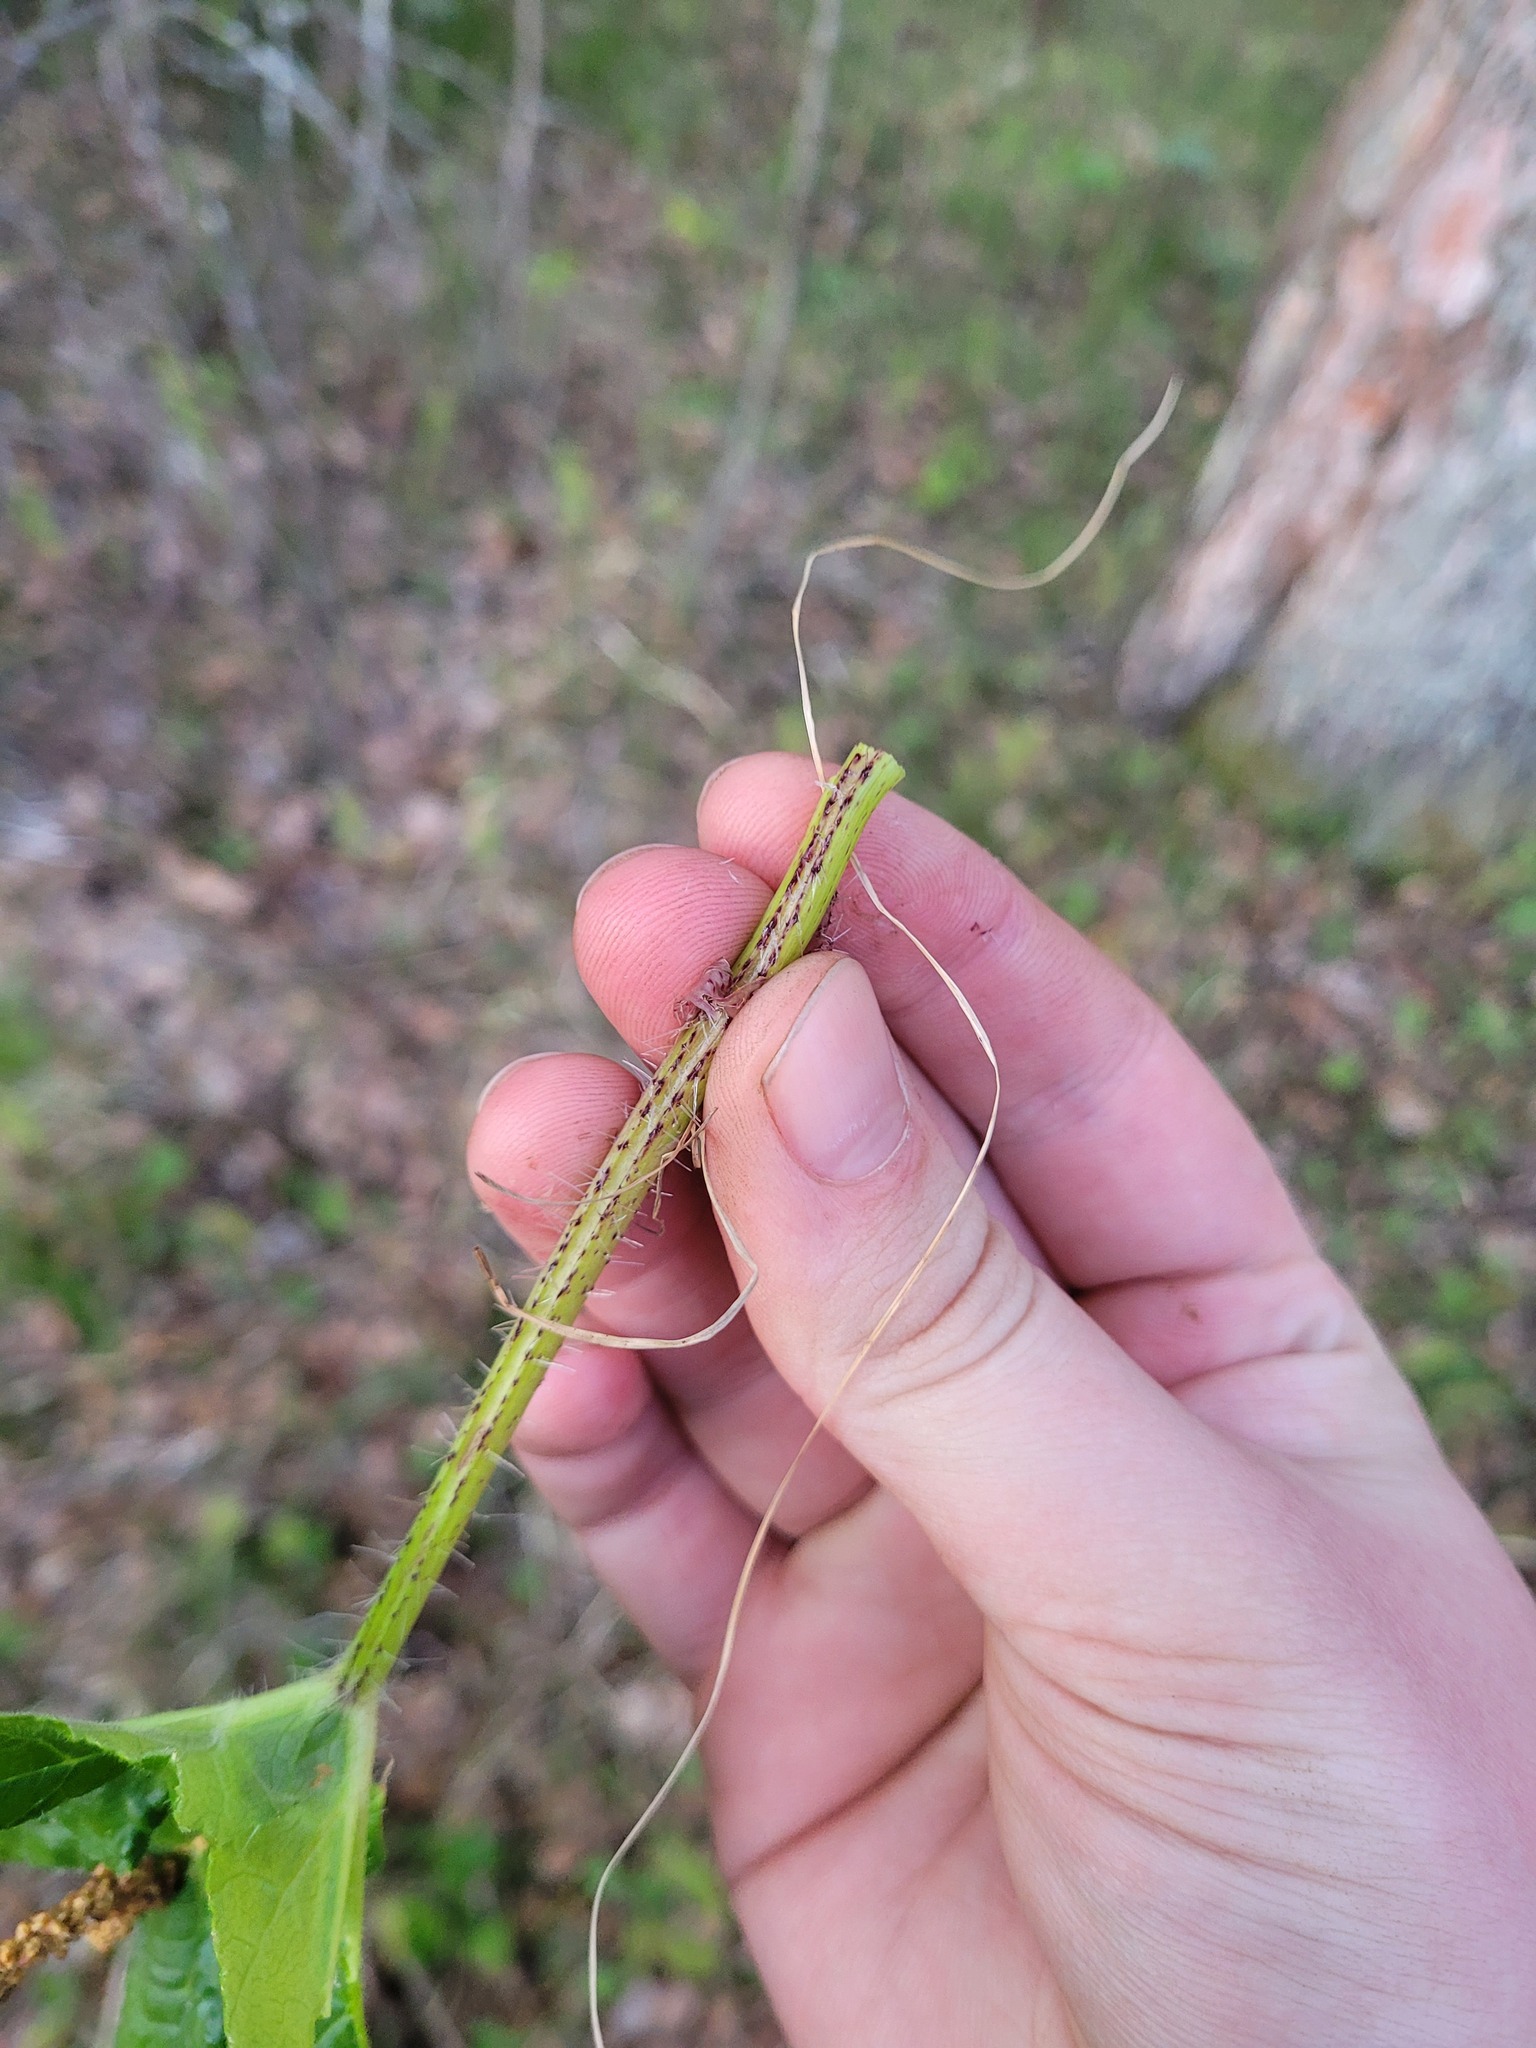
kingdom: Plantae
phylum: Tracheophyta
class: Magnoliopsida
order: Apiales
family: Apiaceae
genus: Heracleum
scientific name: Heracleum sosnowskyi
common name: Sosnowsky's hogweed
